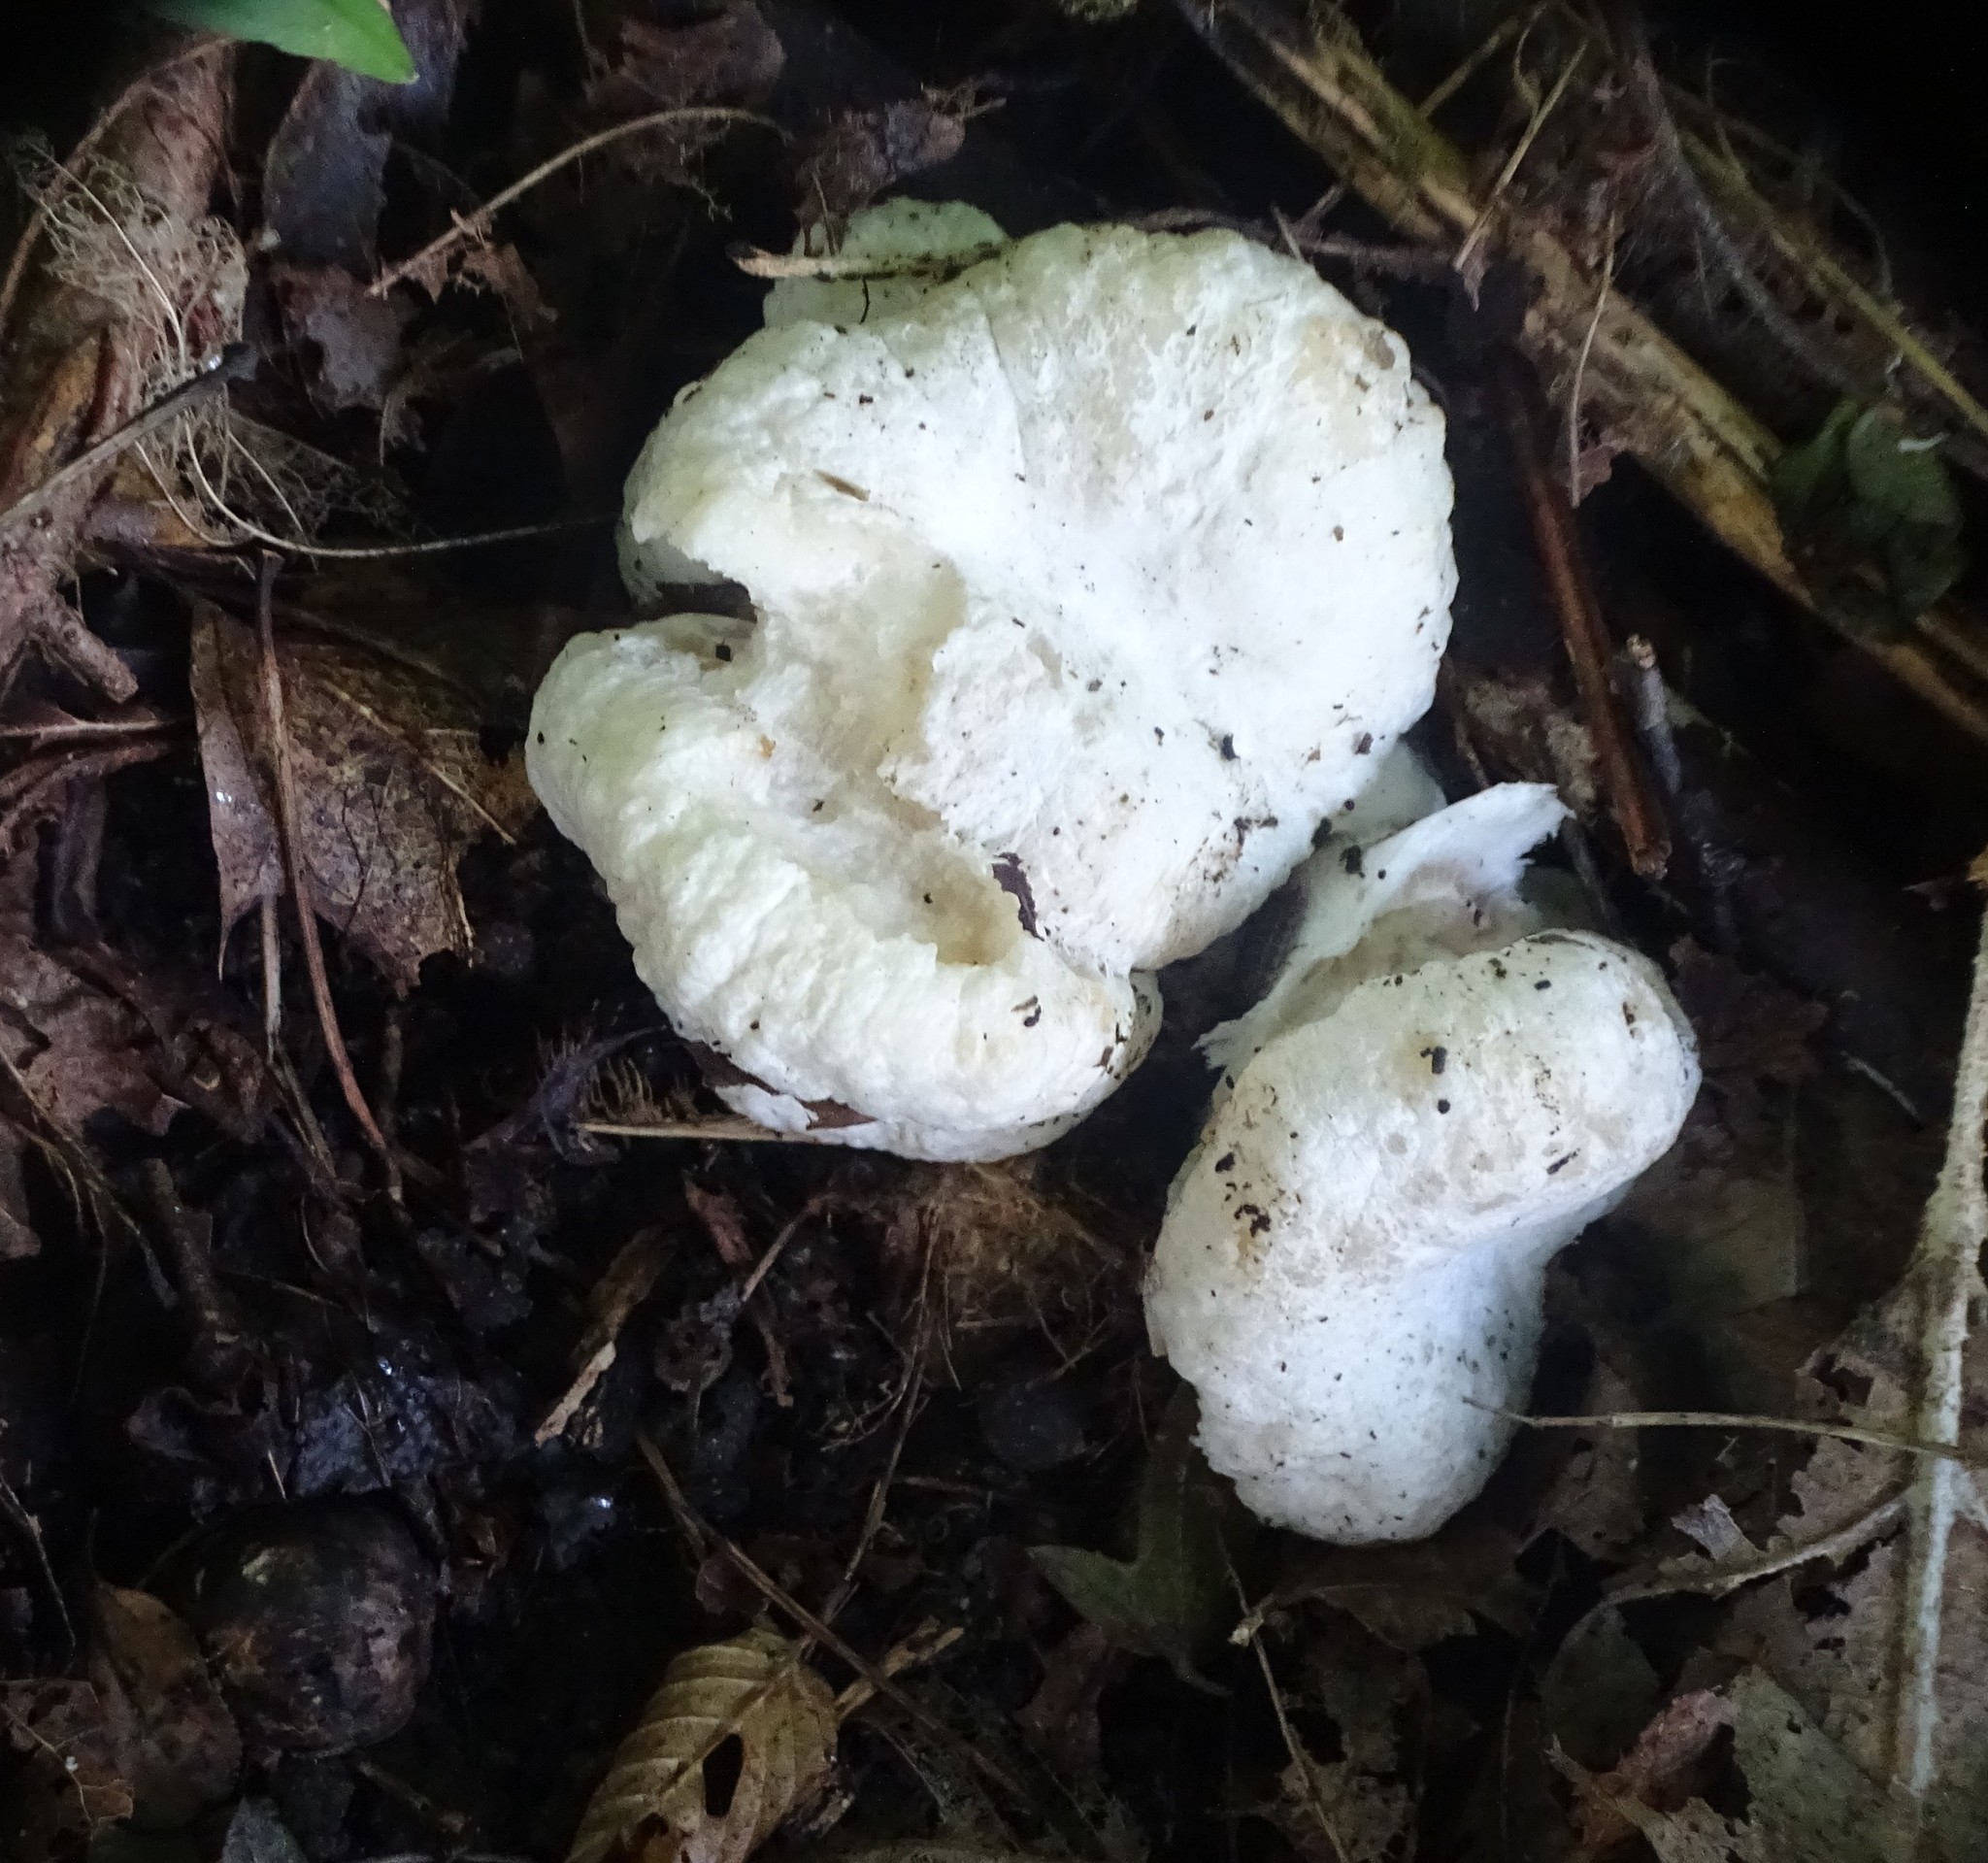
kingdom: Fungi
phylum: Basidiomycota
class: Agaricomycetes
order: Agaricales
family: Entolomataceae
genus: Entoloma
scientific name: Entoloma abortivum
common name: Aborted entoloma
